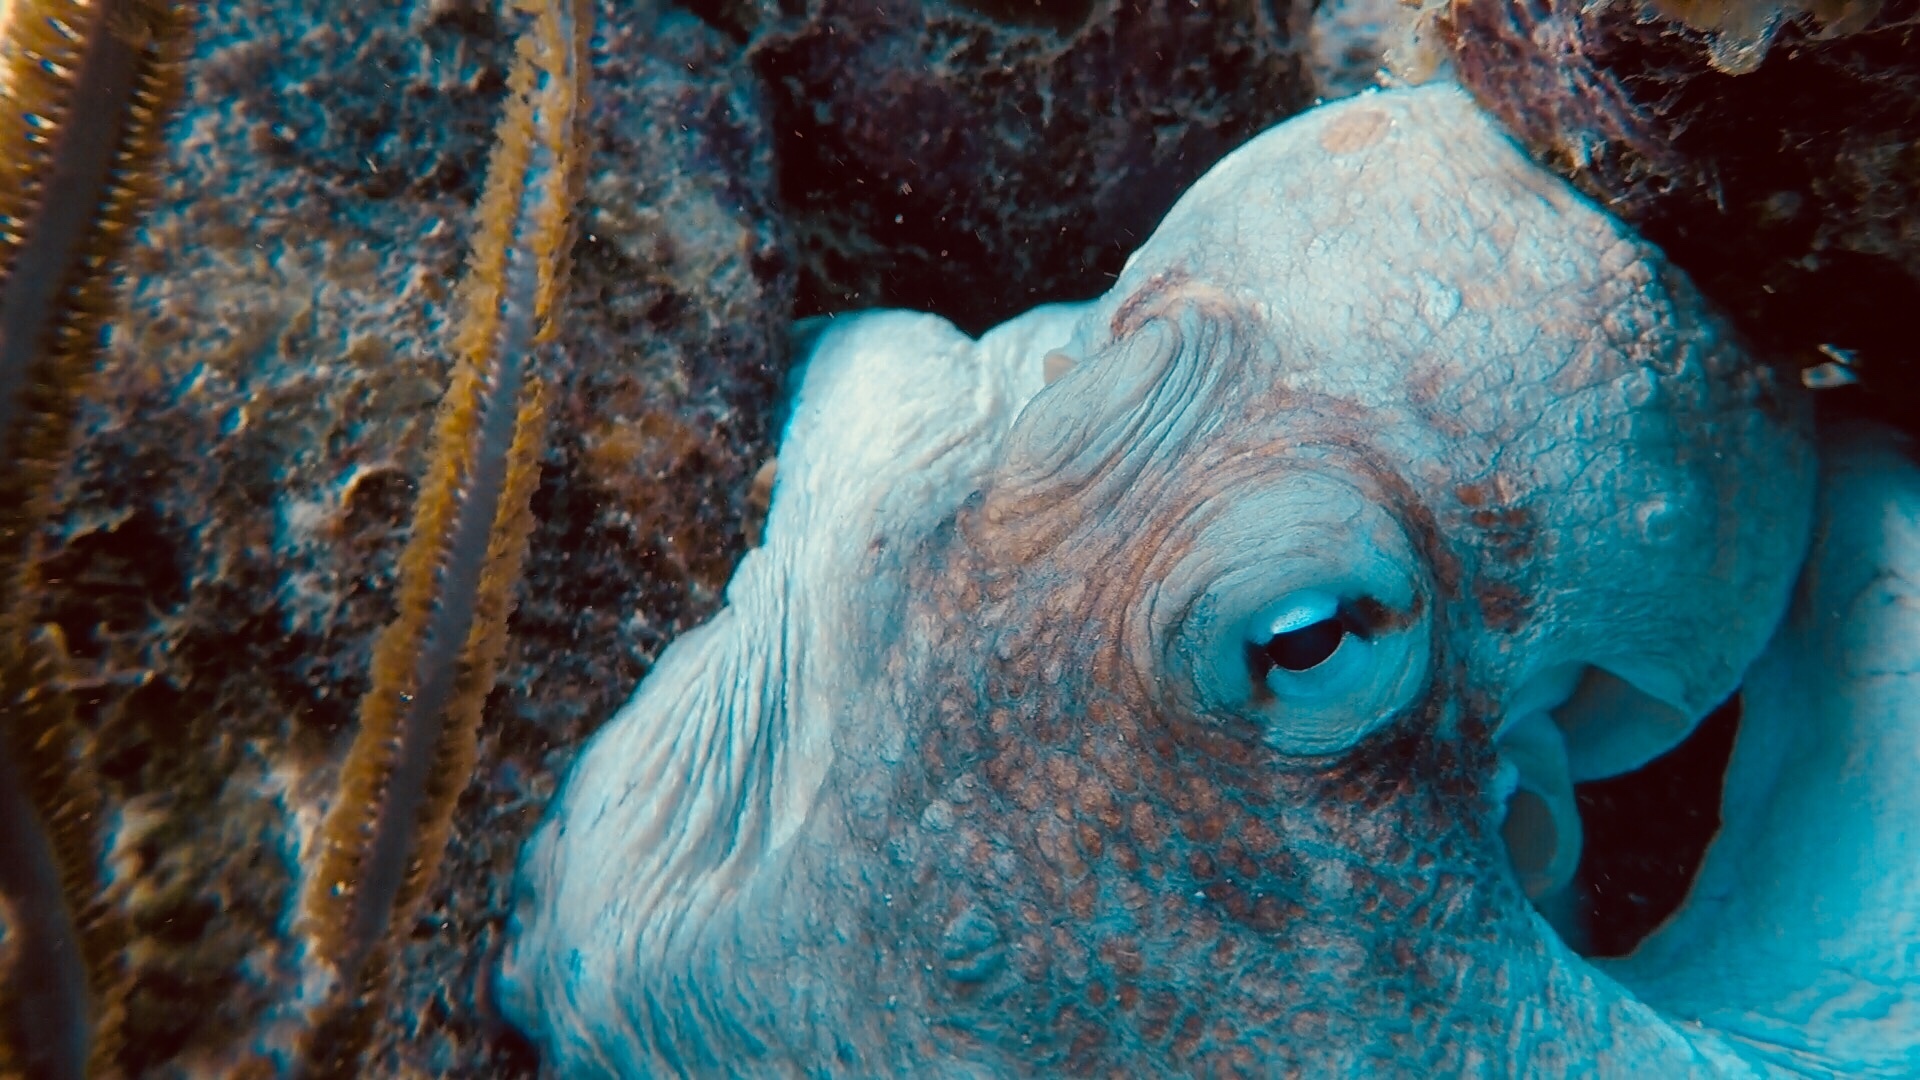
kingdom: Animalia
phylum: Mollusca
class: Cephalopoda
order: Octopoda
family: Octopodidae
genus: Octopus
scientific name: Octopus insularis
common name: Brazil reef octopus
